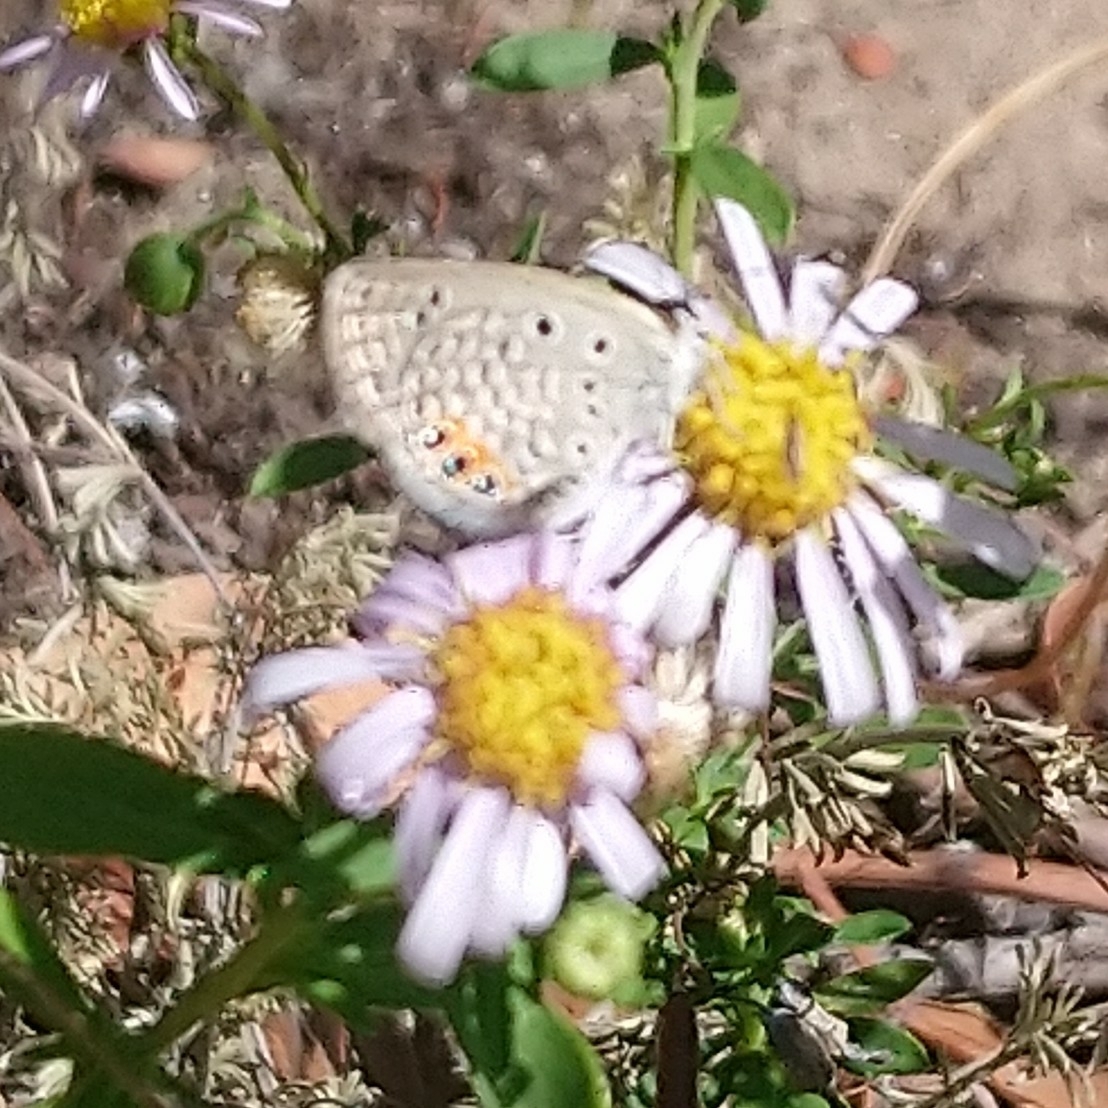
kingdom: Animalia
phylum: Arthropoda
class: Insecta
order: Lepidoptera
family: Lycaenidae
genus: Freyeria
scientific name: Freyeria trochylus
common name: Grass jewel
